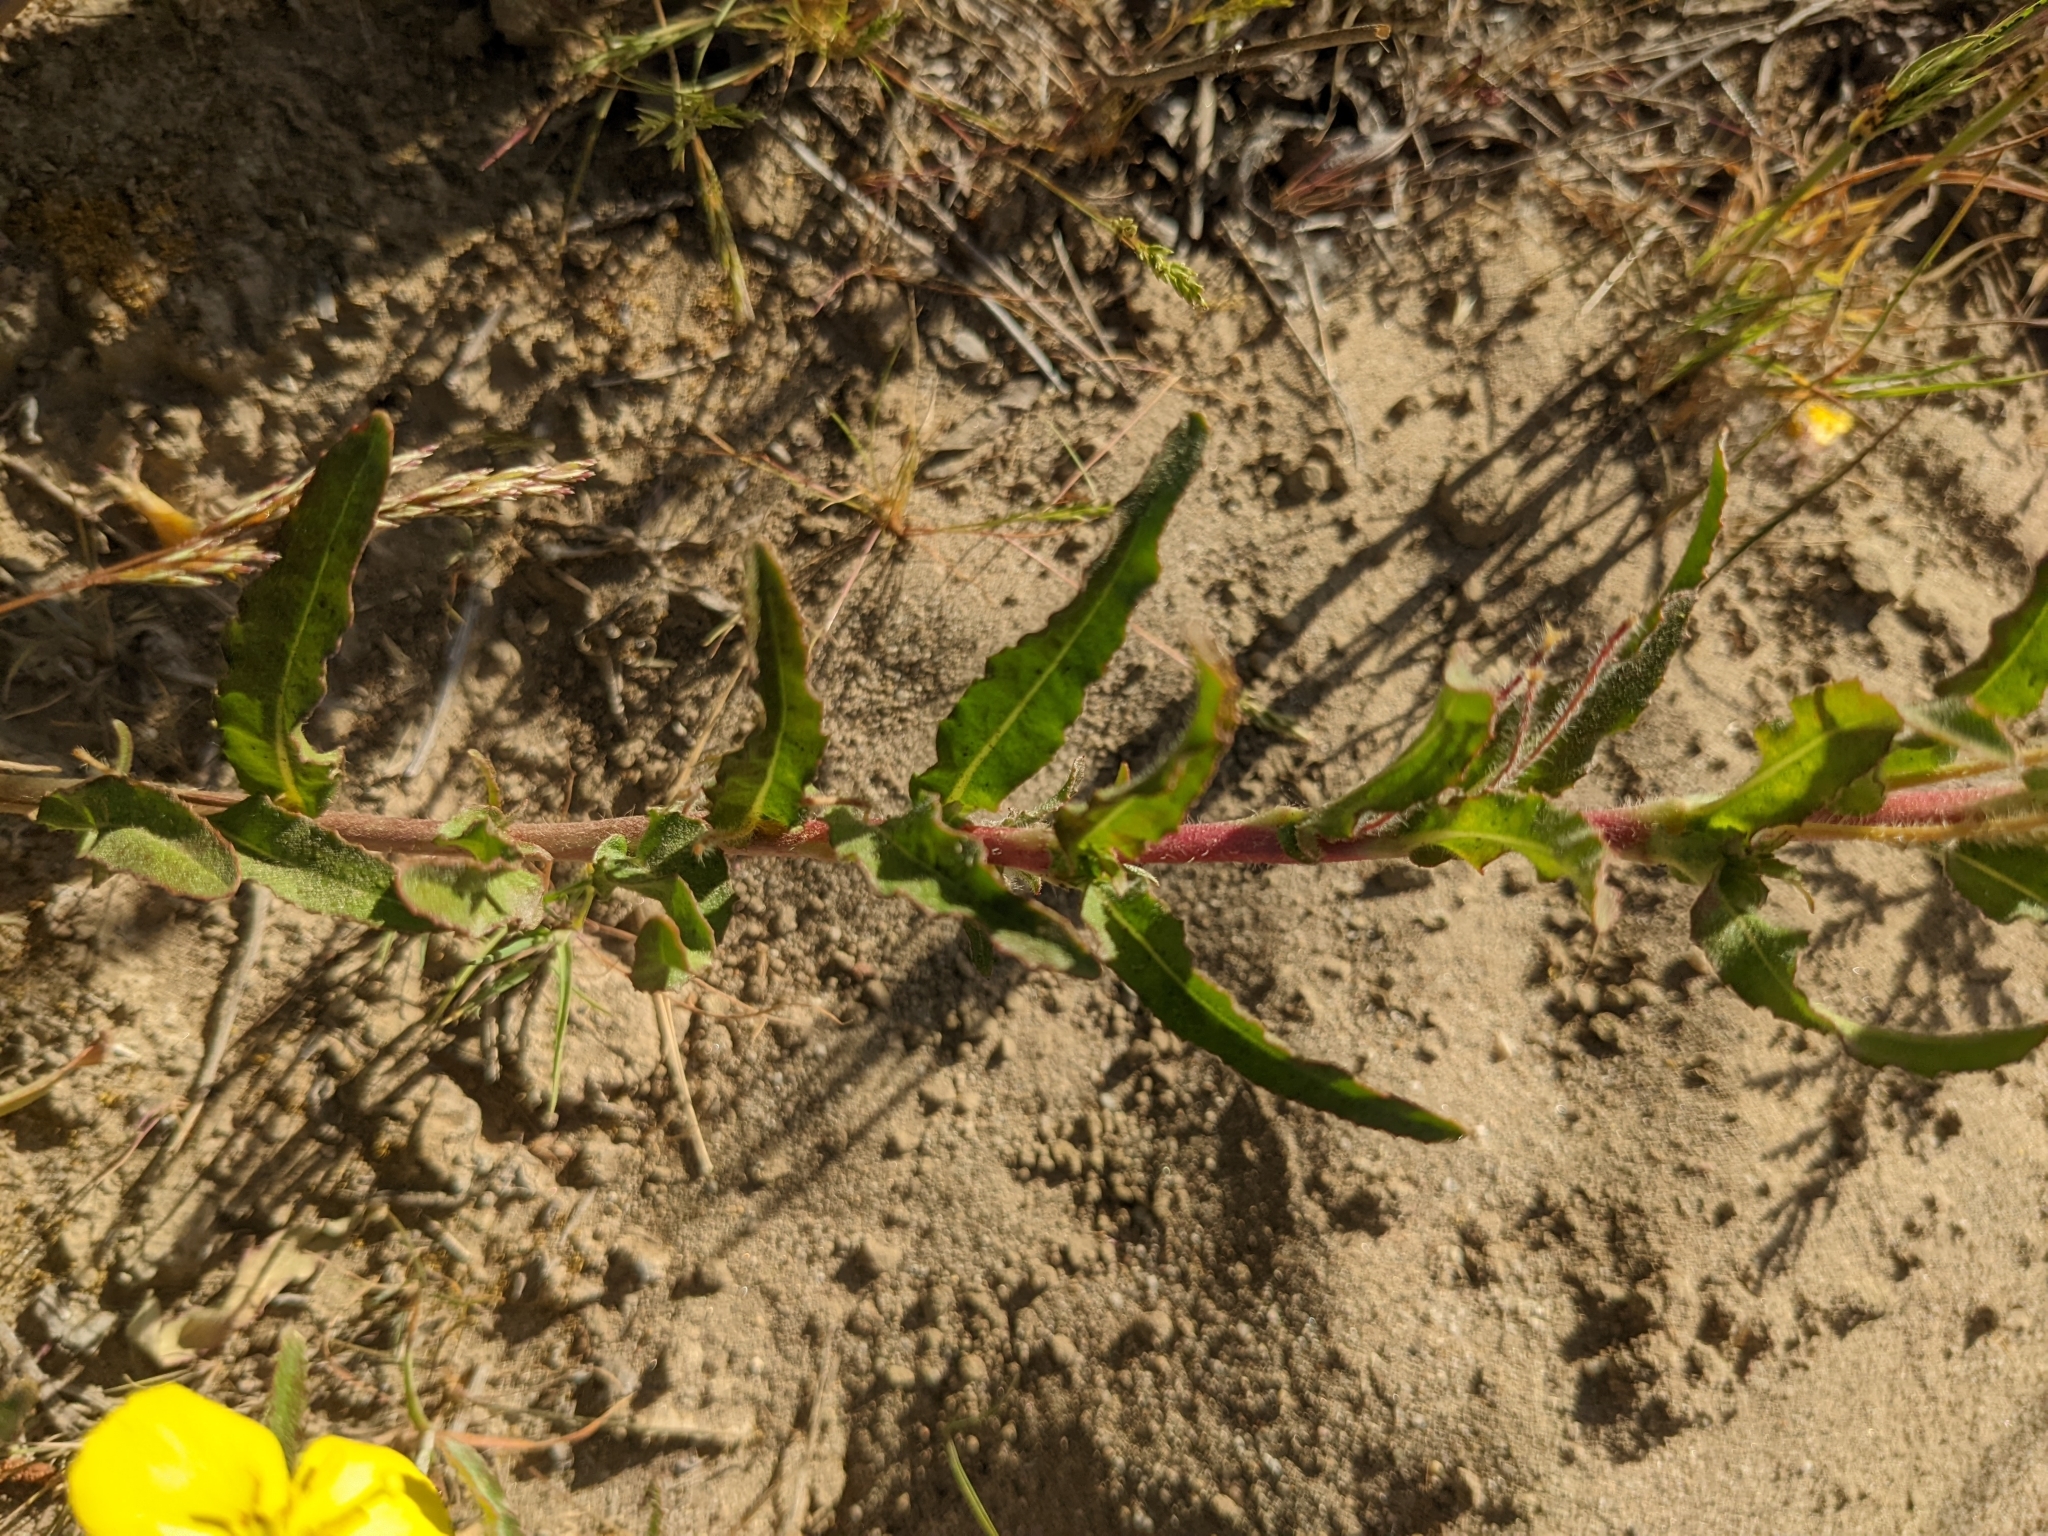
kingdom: Plantae
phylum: Tracheophyta
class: Magnoliopsida
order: Myrtales
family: Onagraceae
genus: Camissoniopsis
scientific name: Camissoniopsis bistorta
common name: Southern suncup
